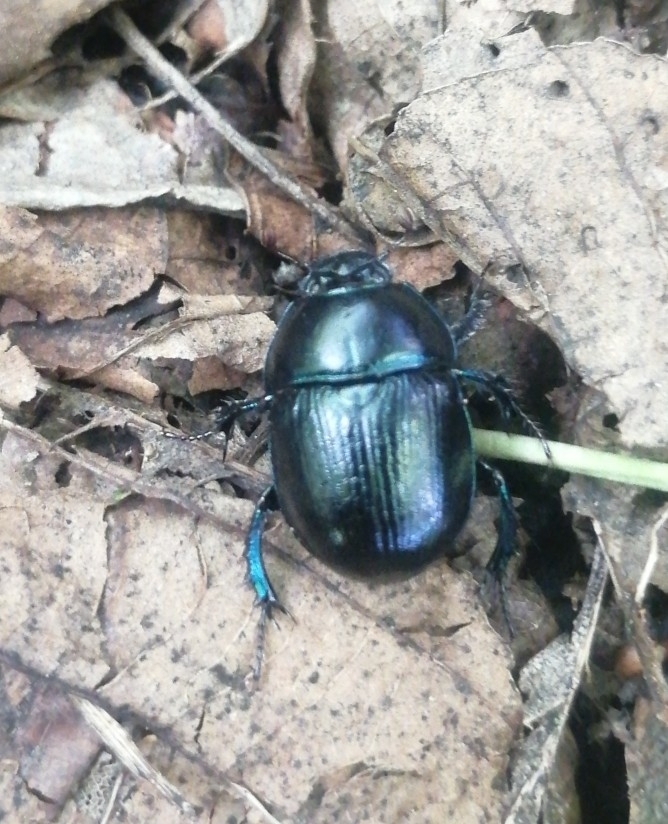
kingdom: Animalia
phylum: Arthropoda
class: Insecta
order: Coleoptera
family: Geotrupidae
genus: Anoplotrupes
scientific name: Anoplotrupes stercorosus
